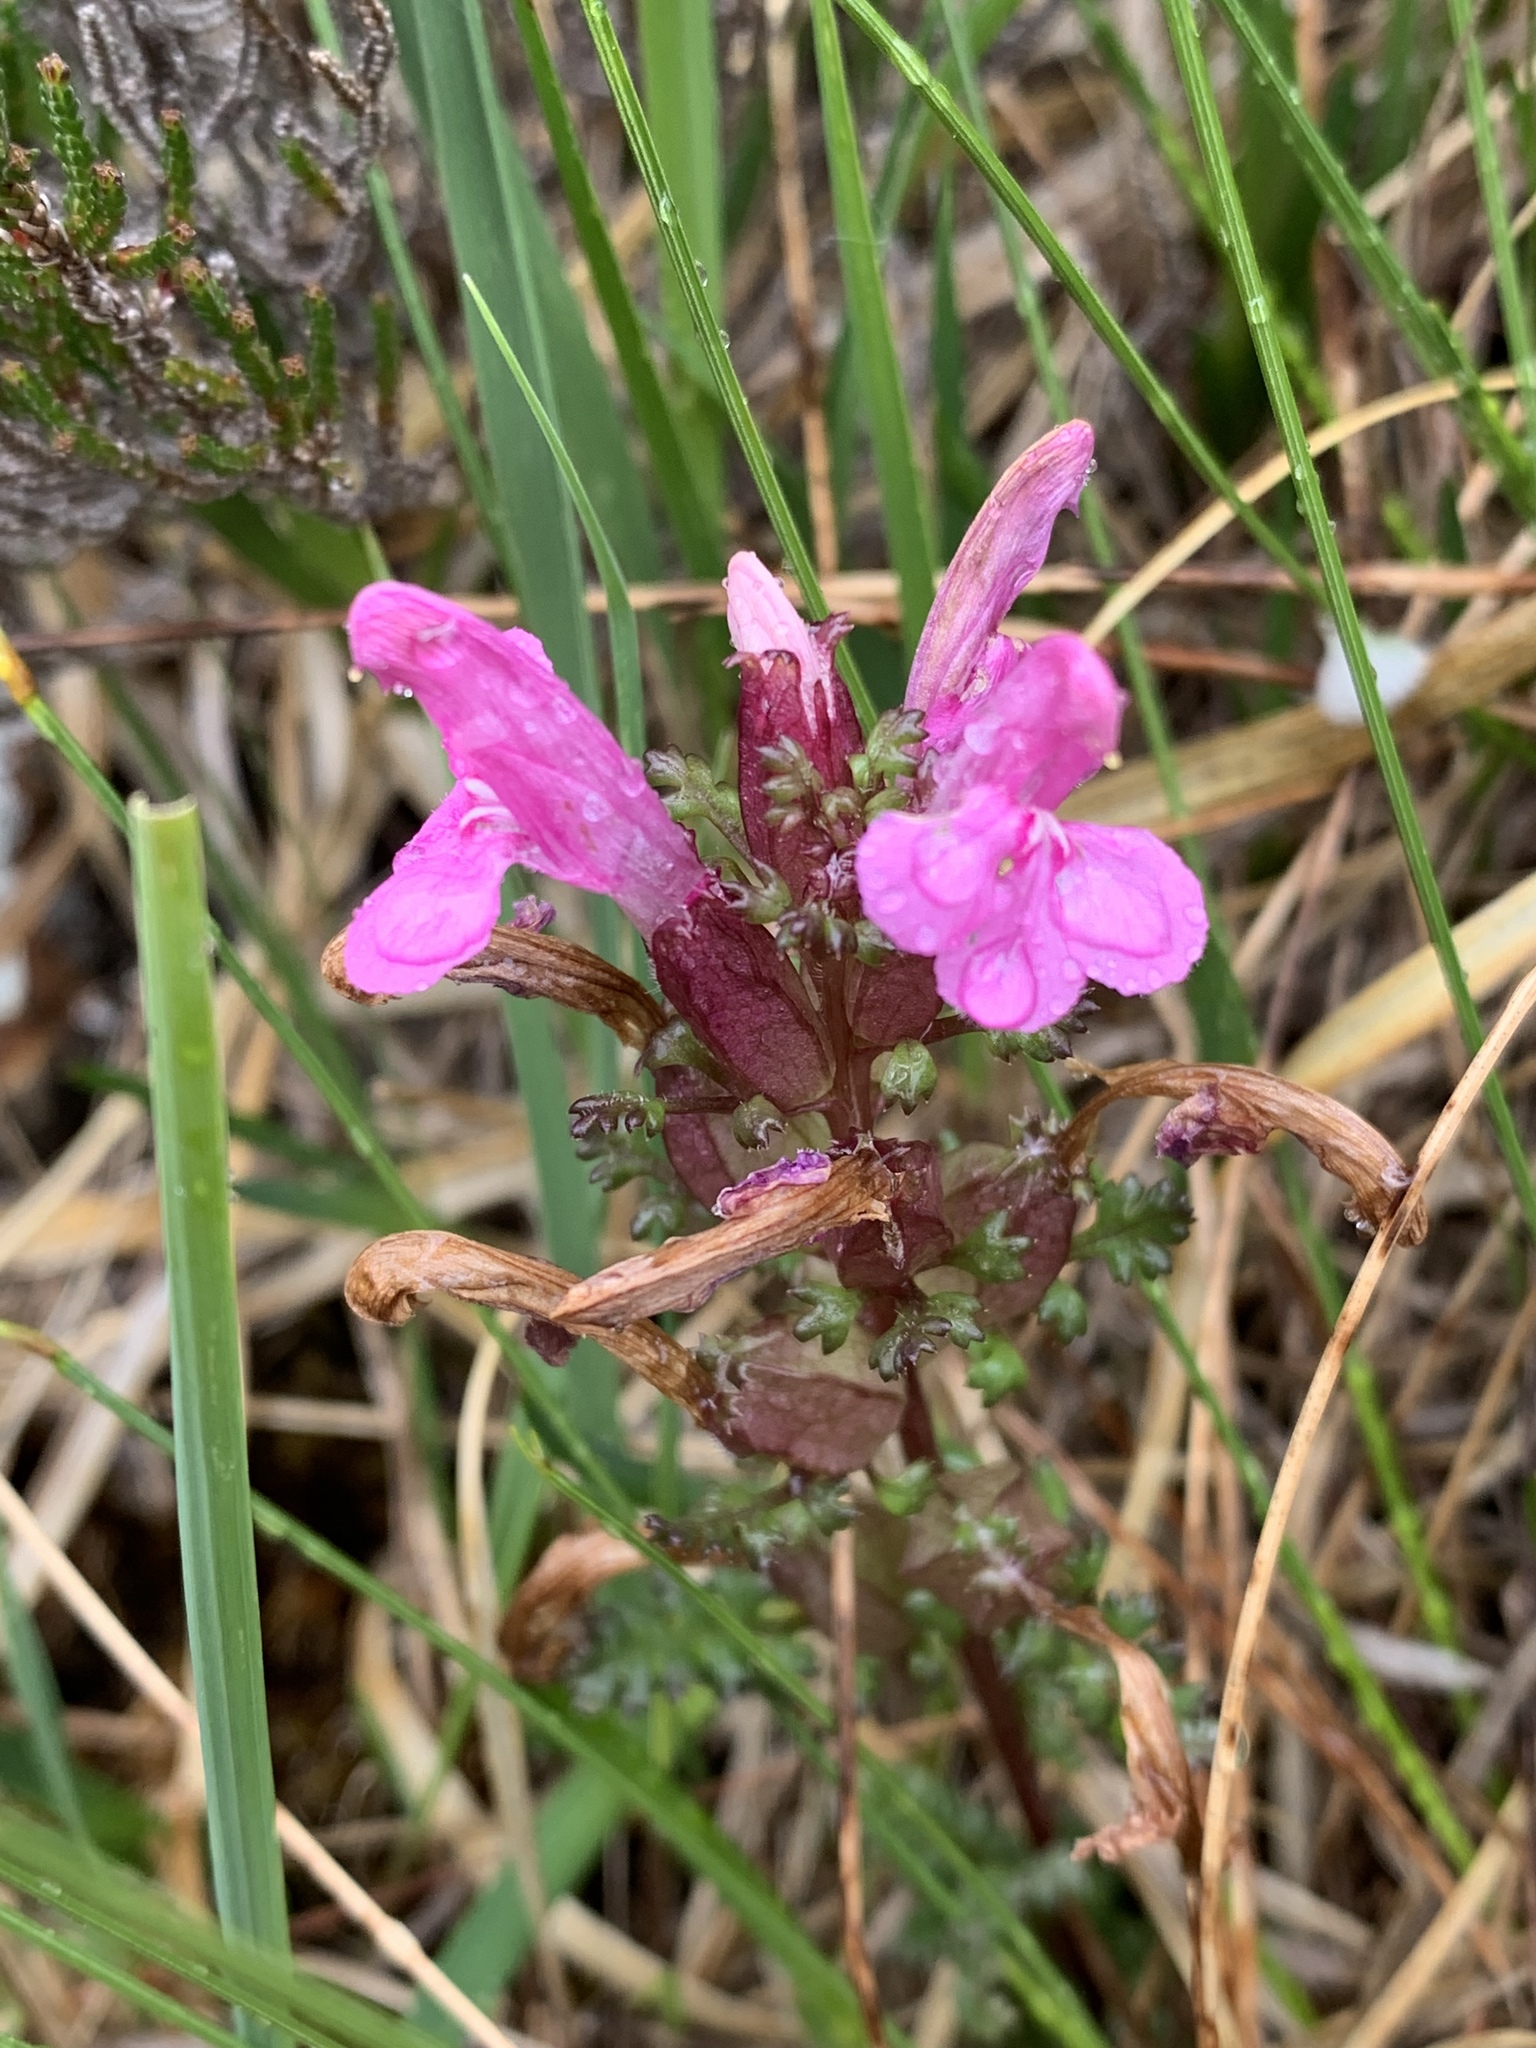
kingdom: Plantae
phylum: Tracheophyta
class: Magnoliopsida
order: Lamiales
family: Orobanchaceae
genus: Pedicularis
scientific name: Pedicularis sylvatica
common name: Lousewort
